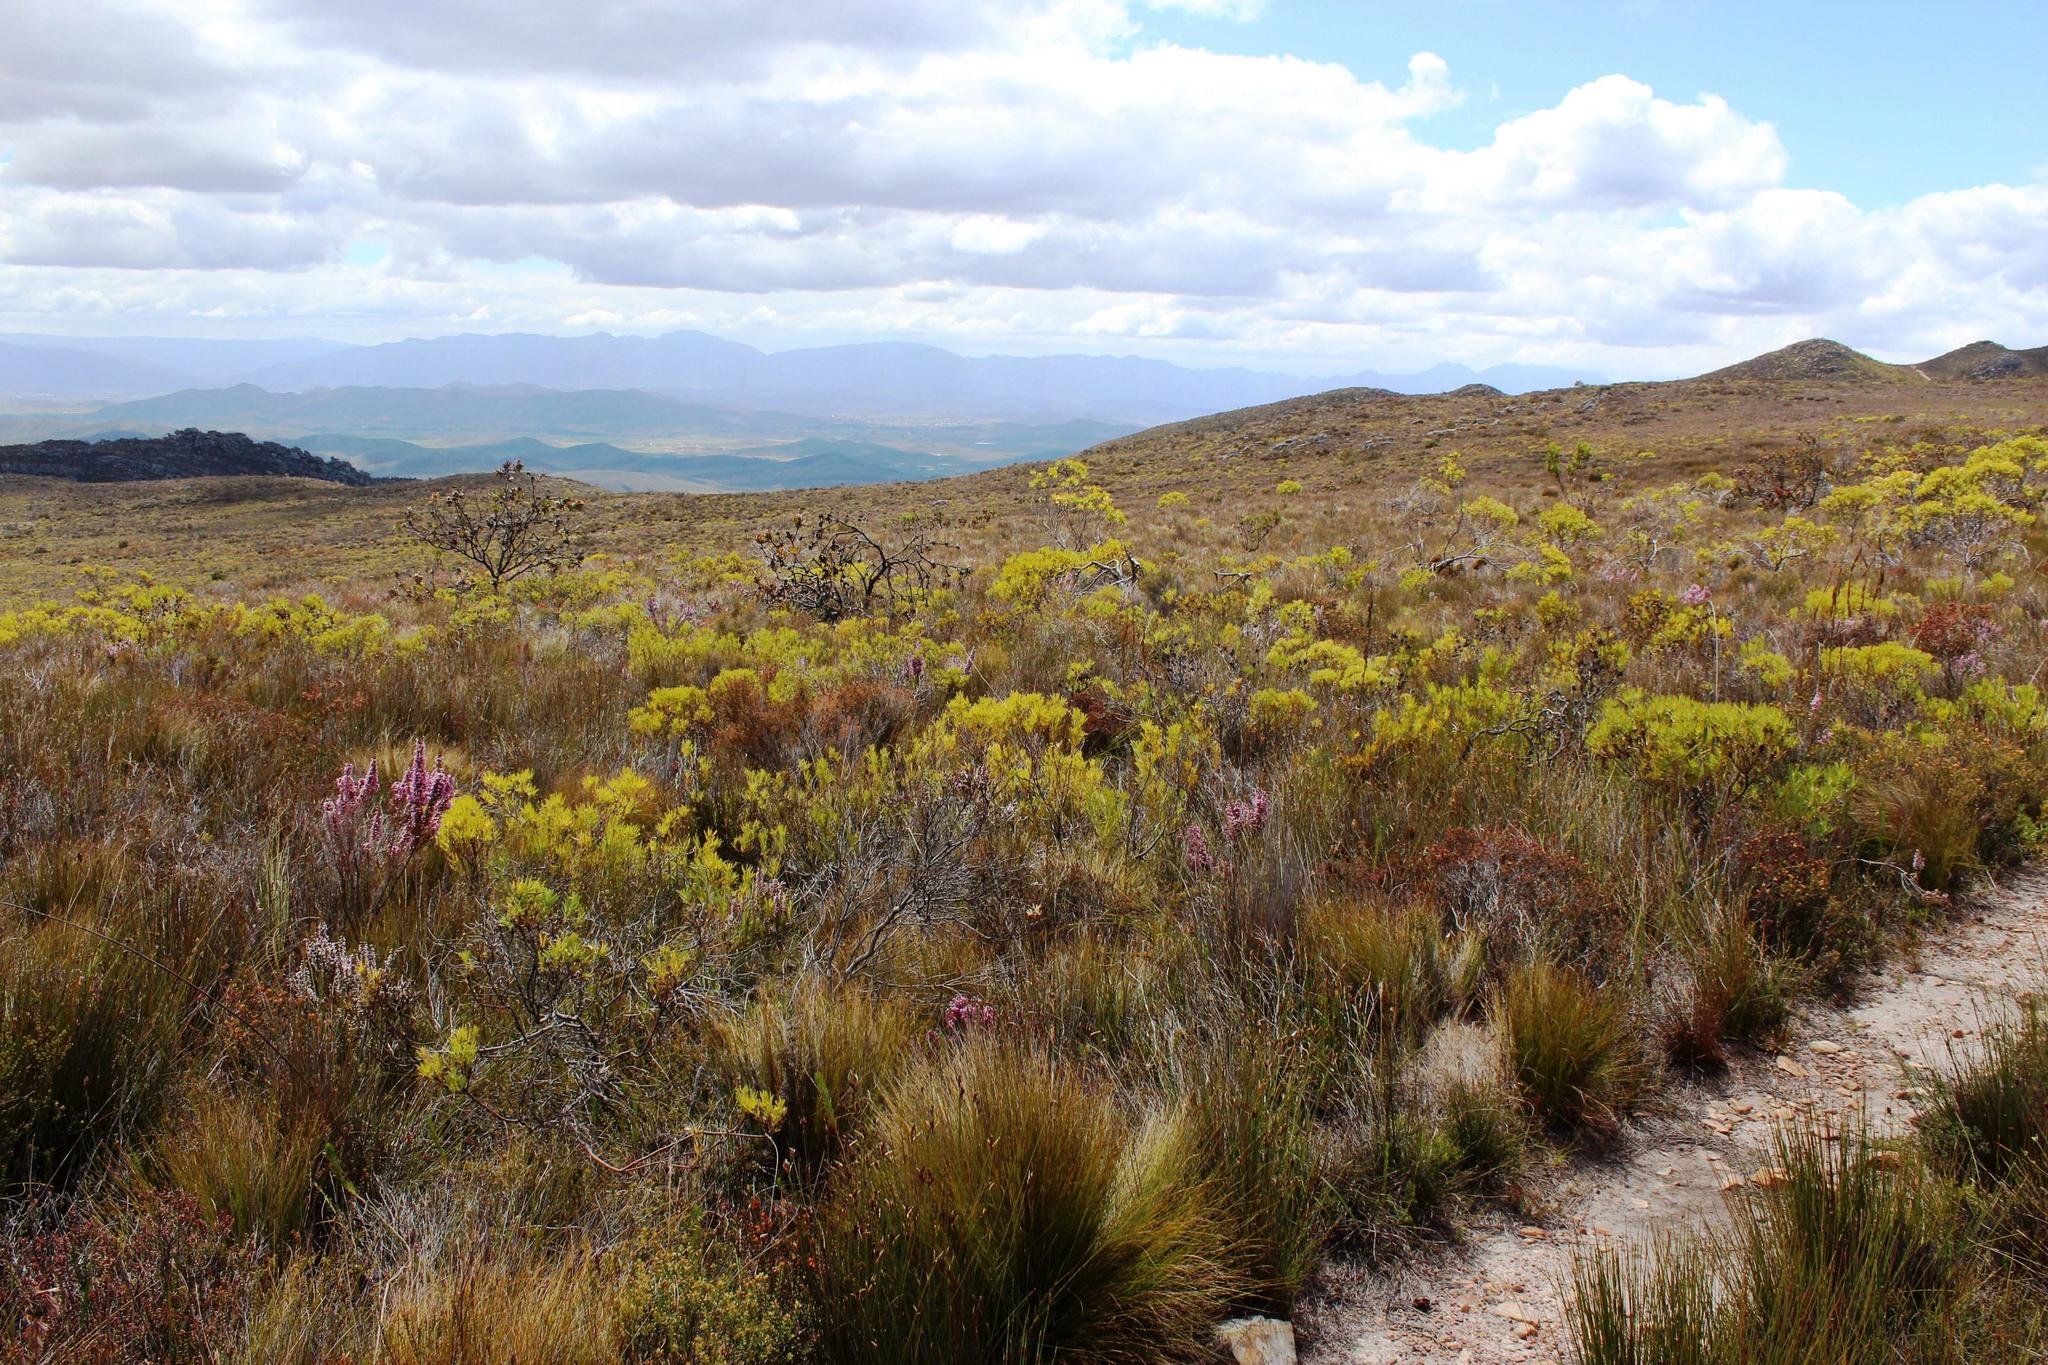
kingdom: Plantae
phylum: Tracheophyta
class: Magnoliopsida
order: Proteales
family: Proteaceae
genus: Leucadendron
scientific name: Leucadendron salignum
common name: Common sunshine conebush
